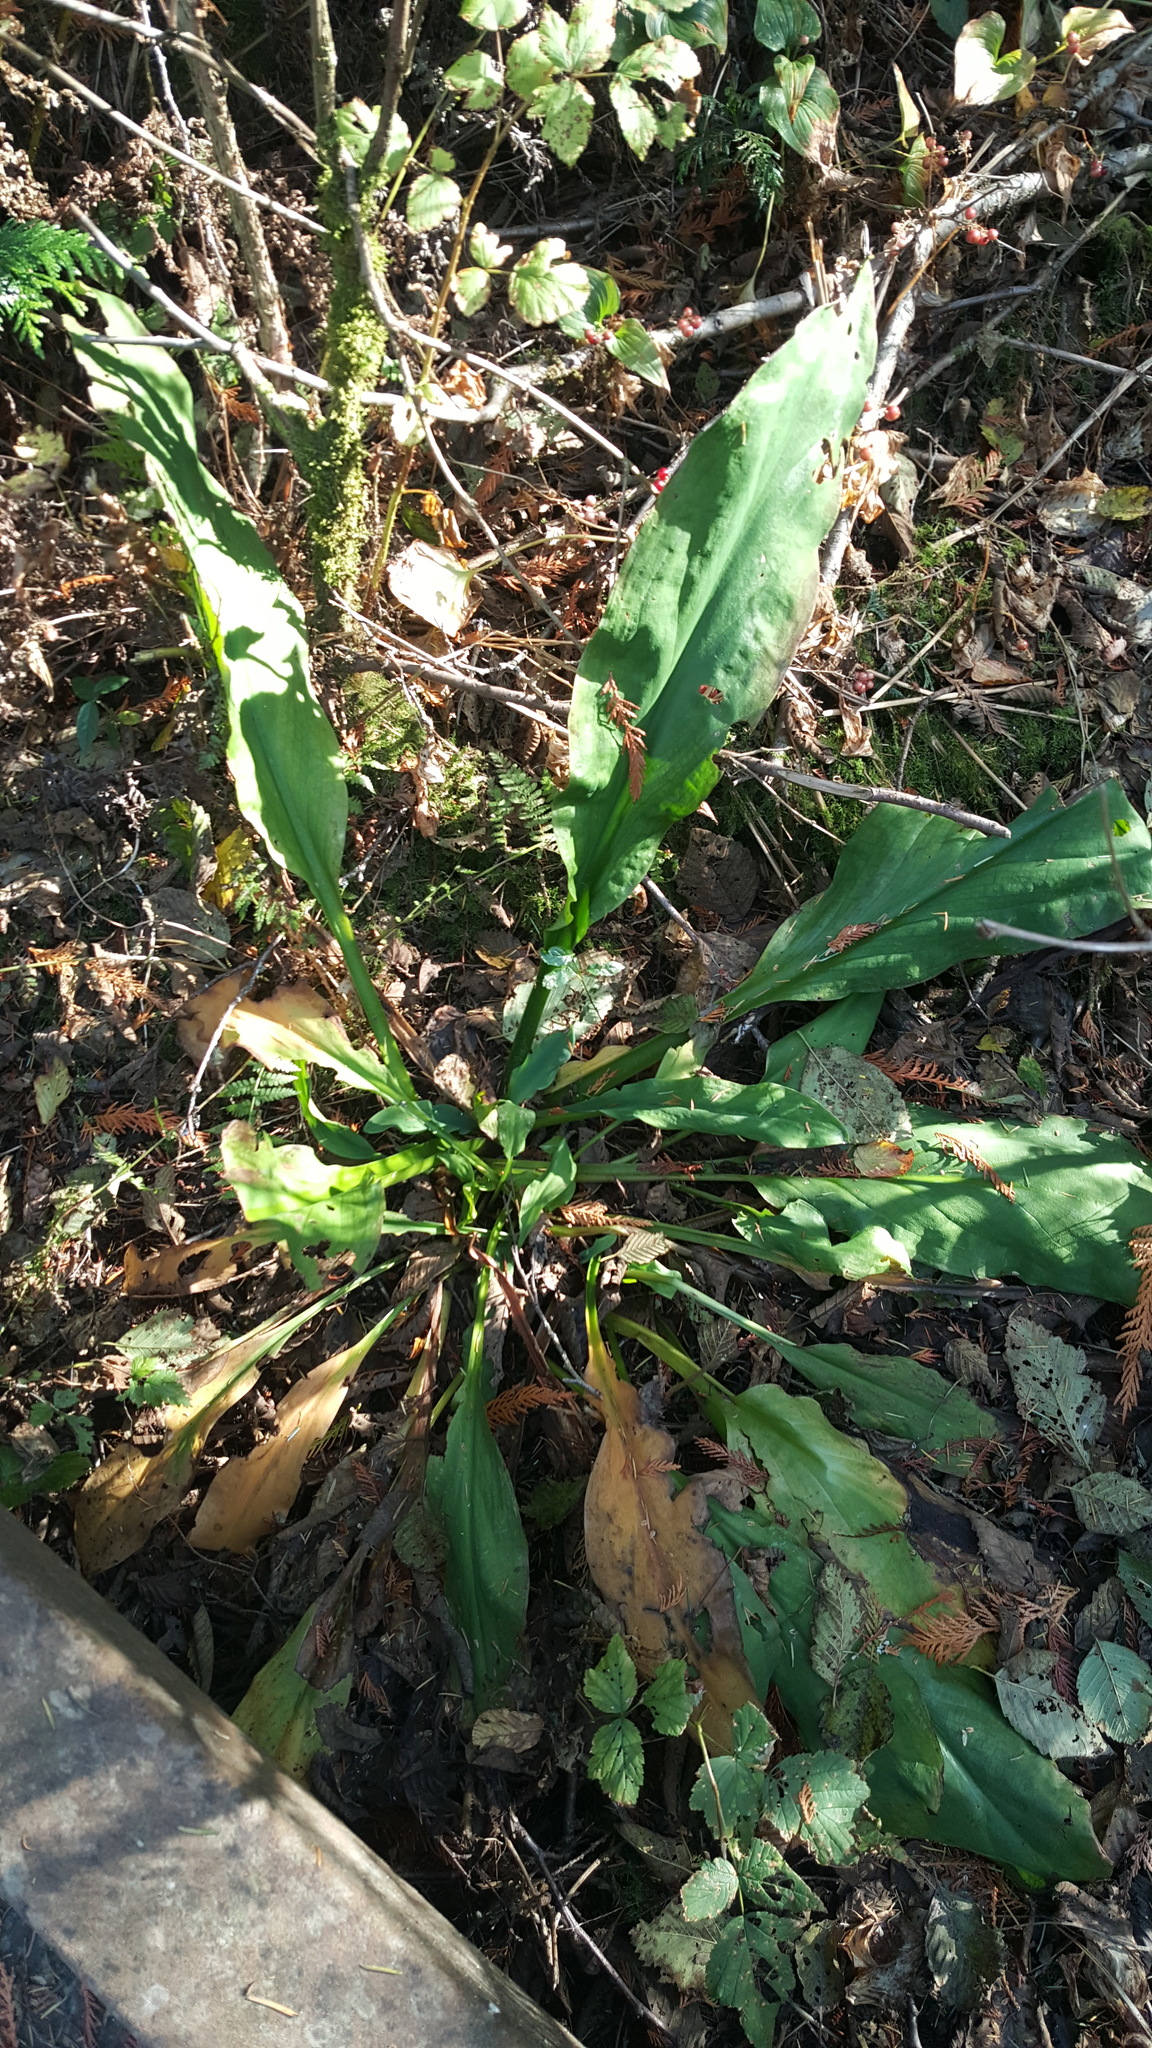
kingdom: Plantae
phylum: Tracheophyta
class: Liliopsida
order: Alismatales
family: Araceae
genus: Lysichiton
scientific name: Lysichiton americanus
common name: American skunk cabbage
